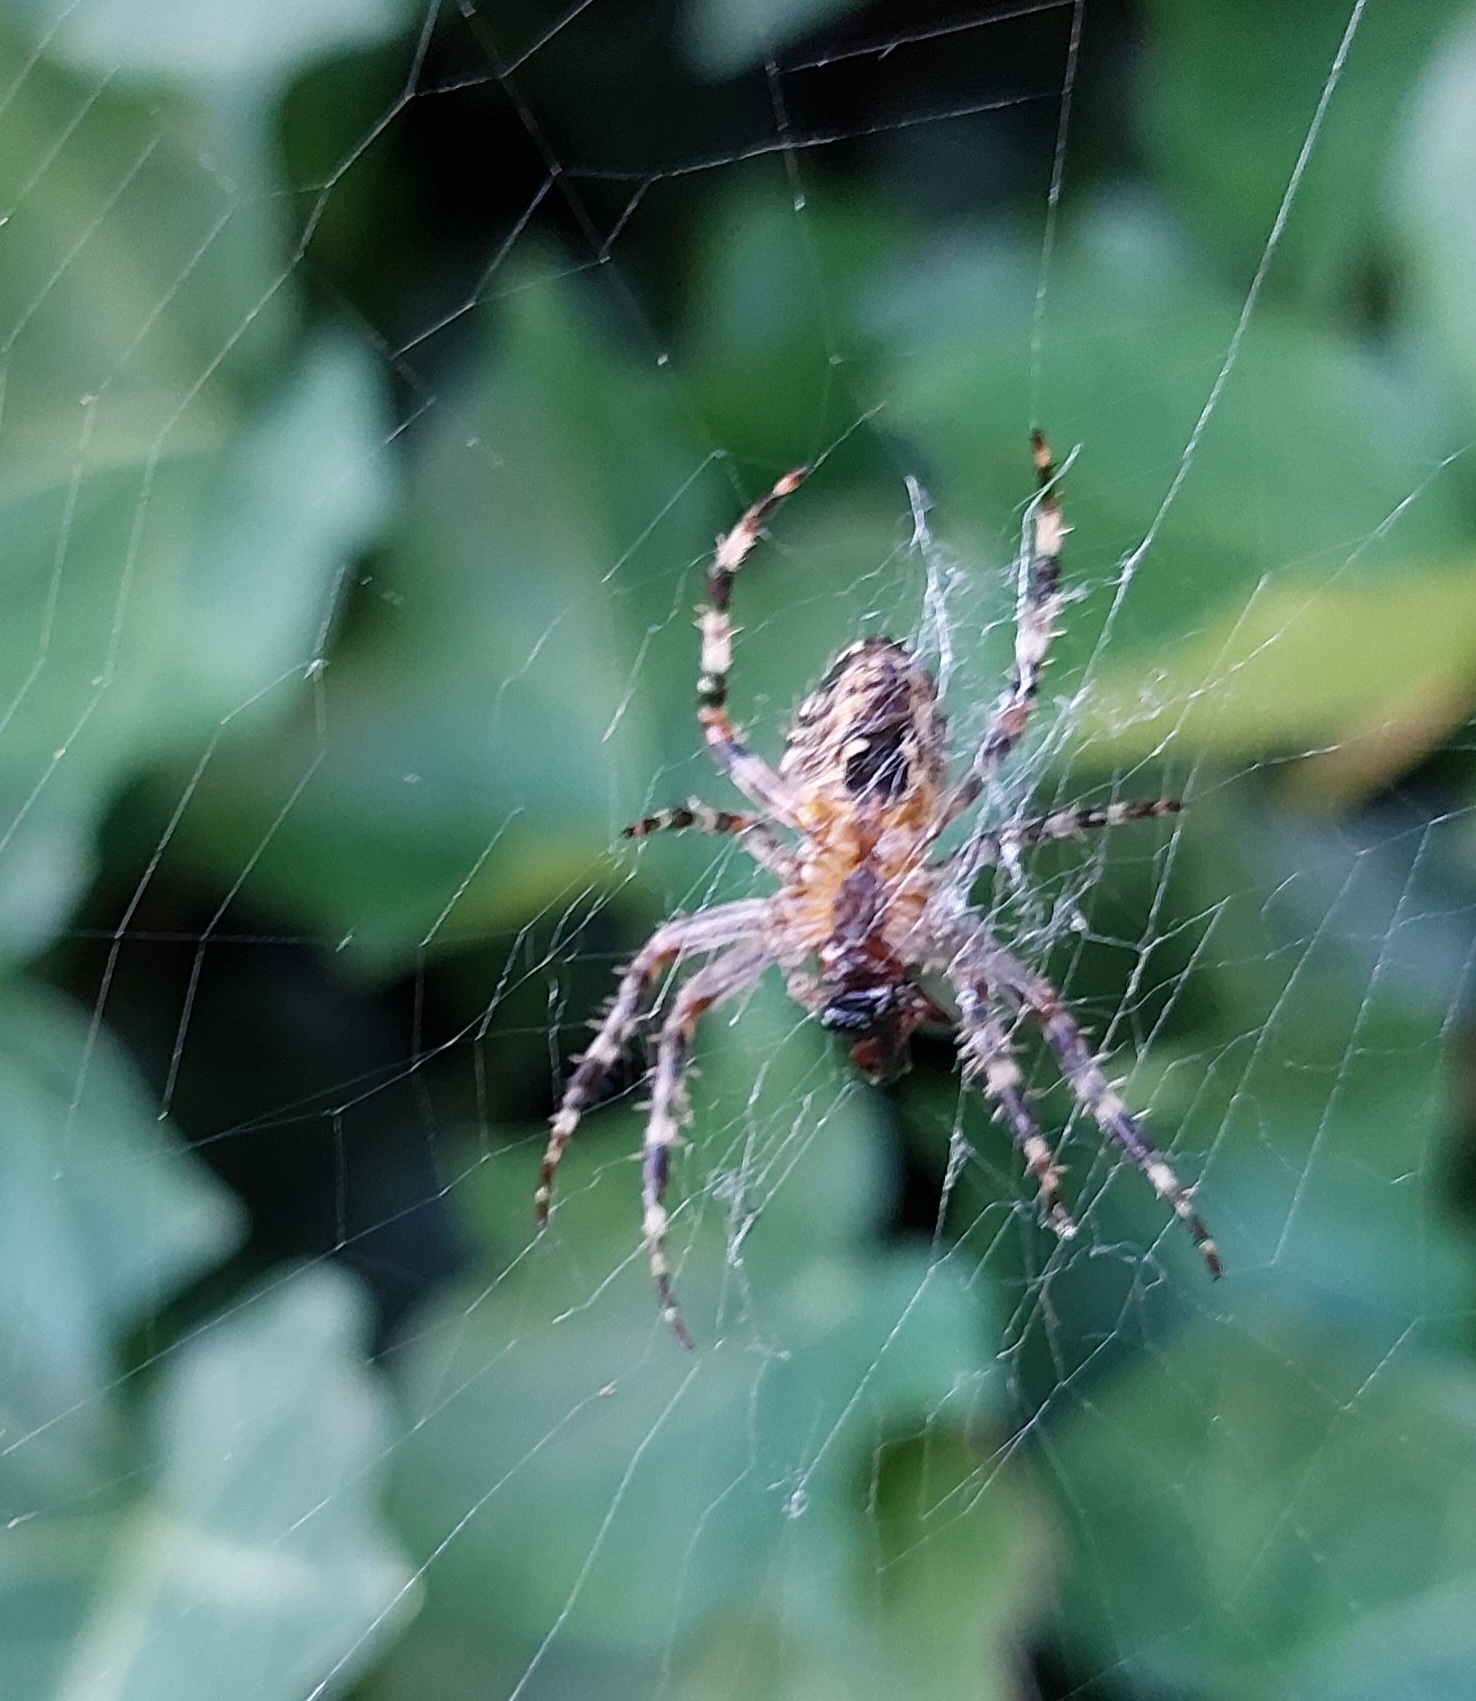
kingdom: Animalia
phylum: Arthropoda
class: Arachnida
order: Araneae
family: Araneidae
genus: Araneus
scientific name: Araneus diadematus
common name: Cross orbweaver
